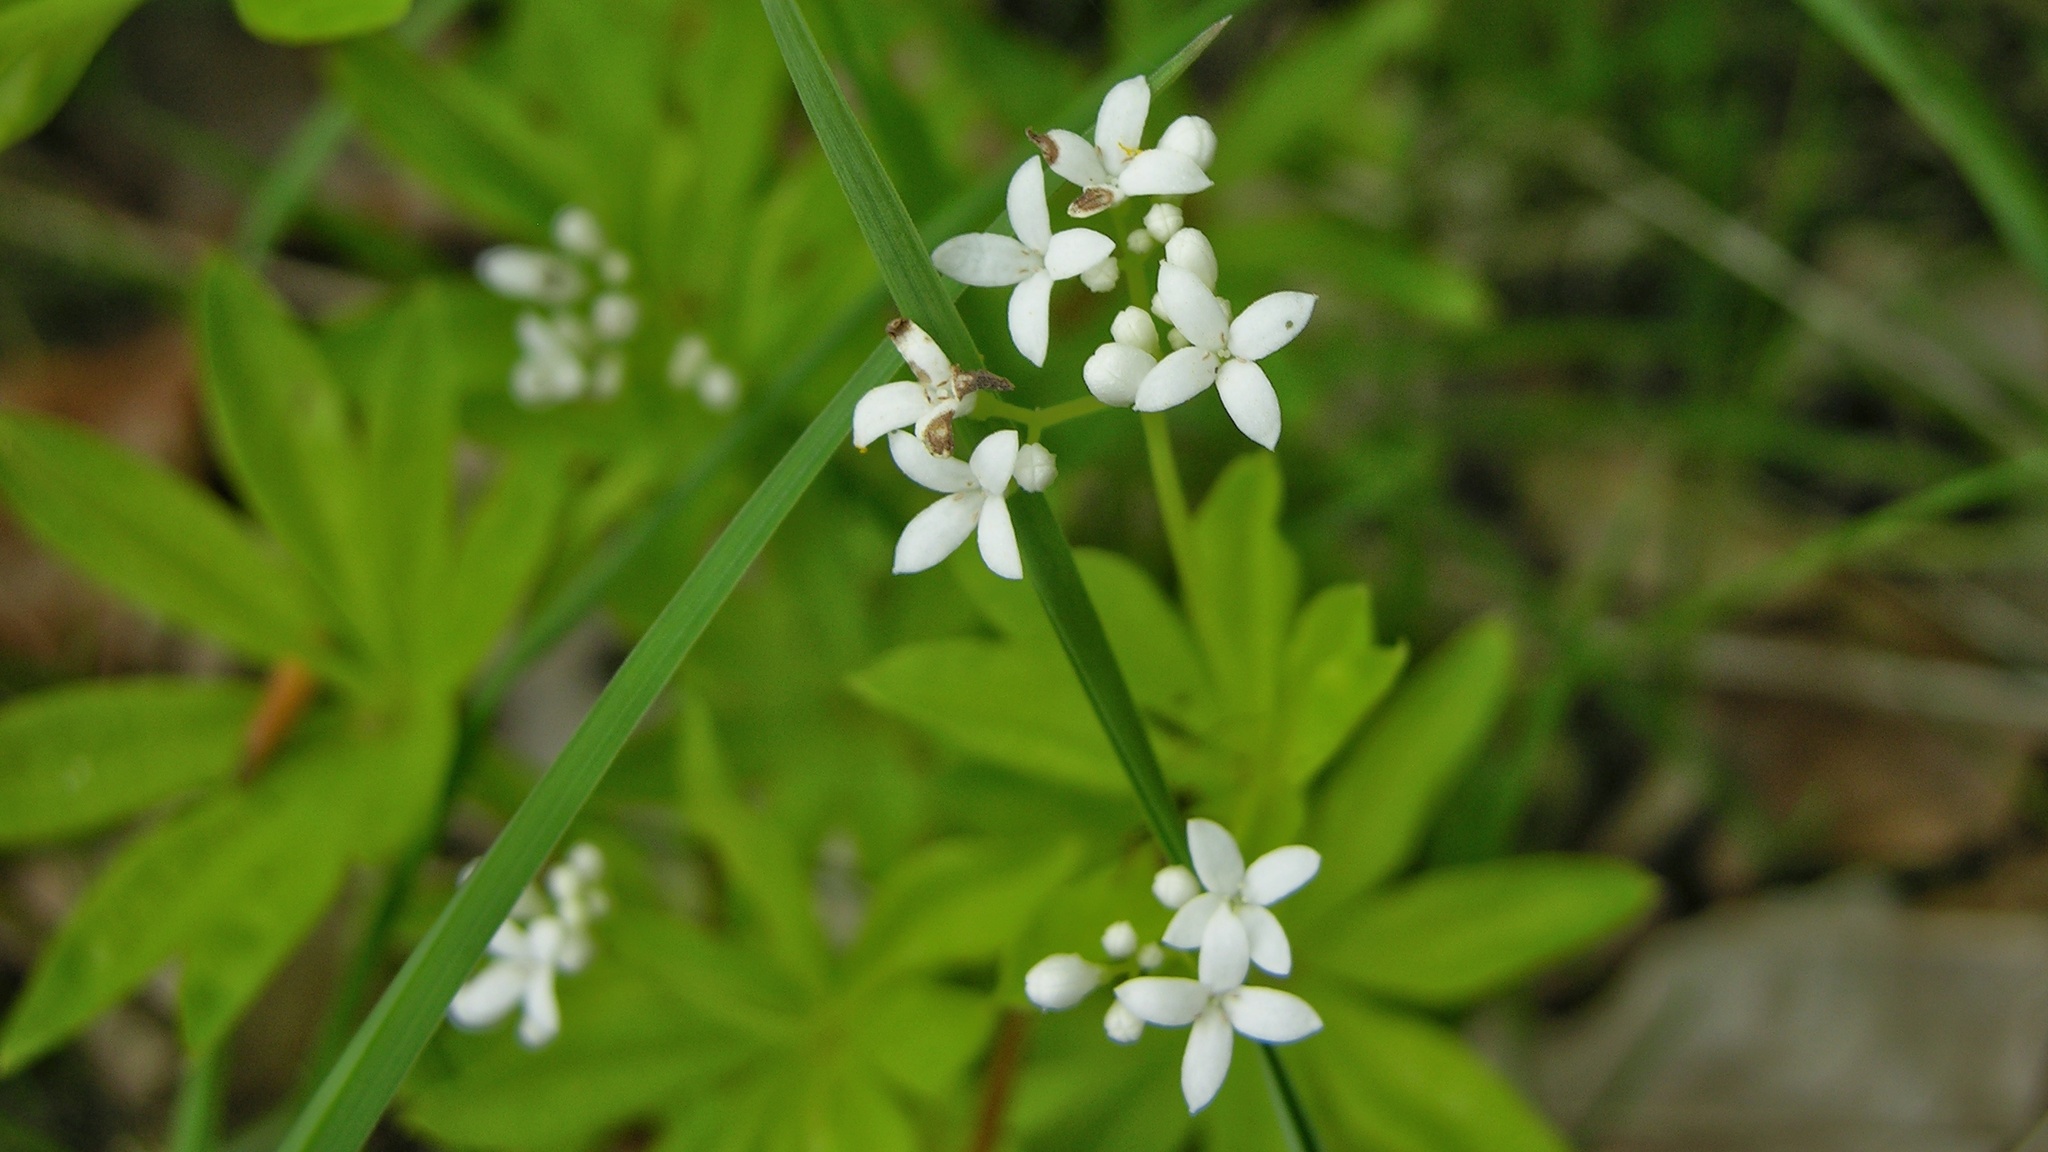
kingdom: Plantae
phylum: Tracheophyta
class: Magnoliopsida
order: Gentianales
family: Rubiaceae
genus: Galium
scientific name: Galium odoratum
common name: Sweet woodruff
